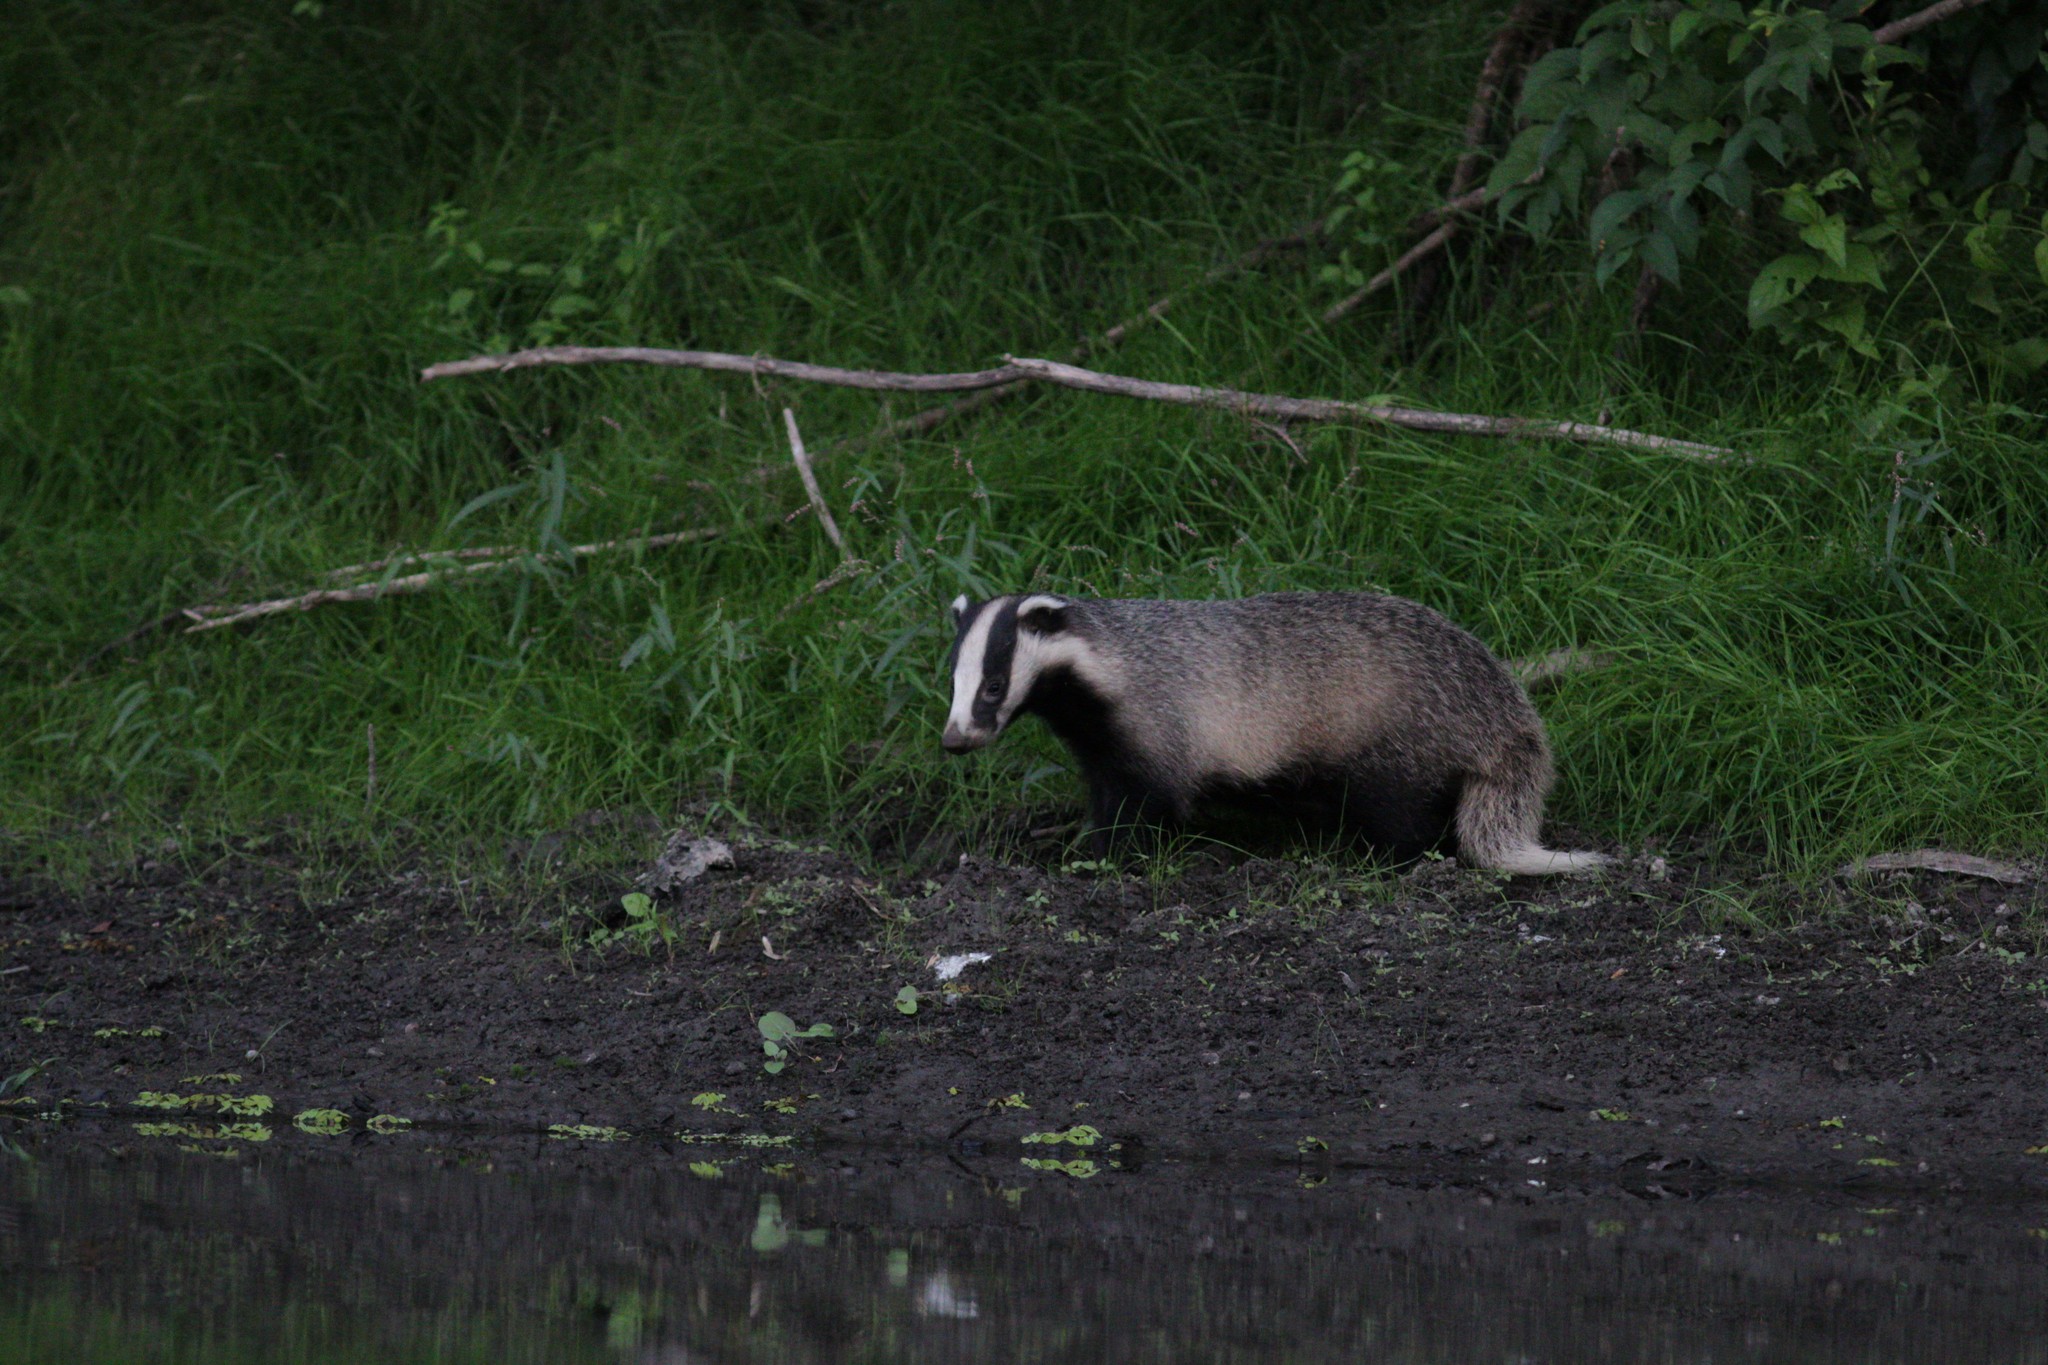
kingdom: Animalia
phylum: Chordata
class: Mammalia
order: Carnivora
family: Mustelidae
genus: Meles
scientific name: Meles leucurus
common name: Asian badger
